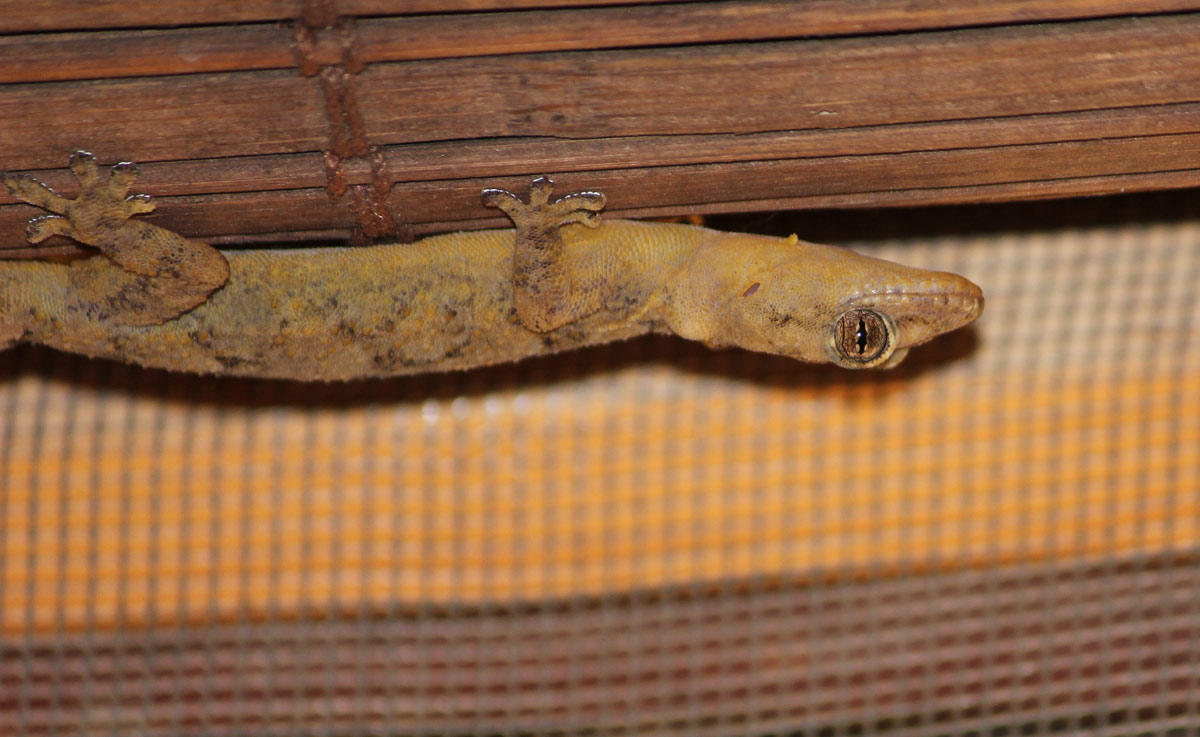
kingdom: Animalia
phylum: Chordata
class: Squamata
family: Gekkonidae
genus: Hemidactylus
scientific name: Hemidactylus mabouia
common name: House gecko
